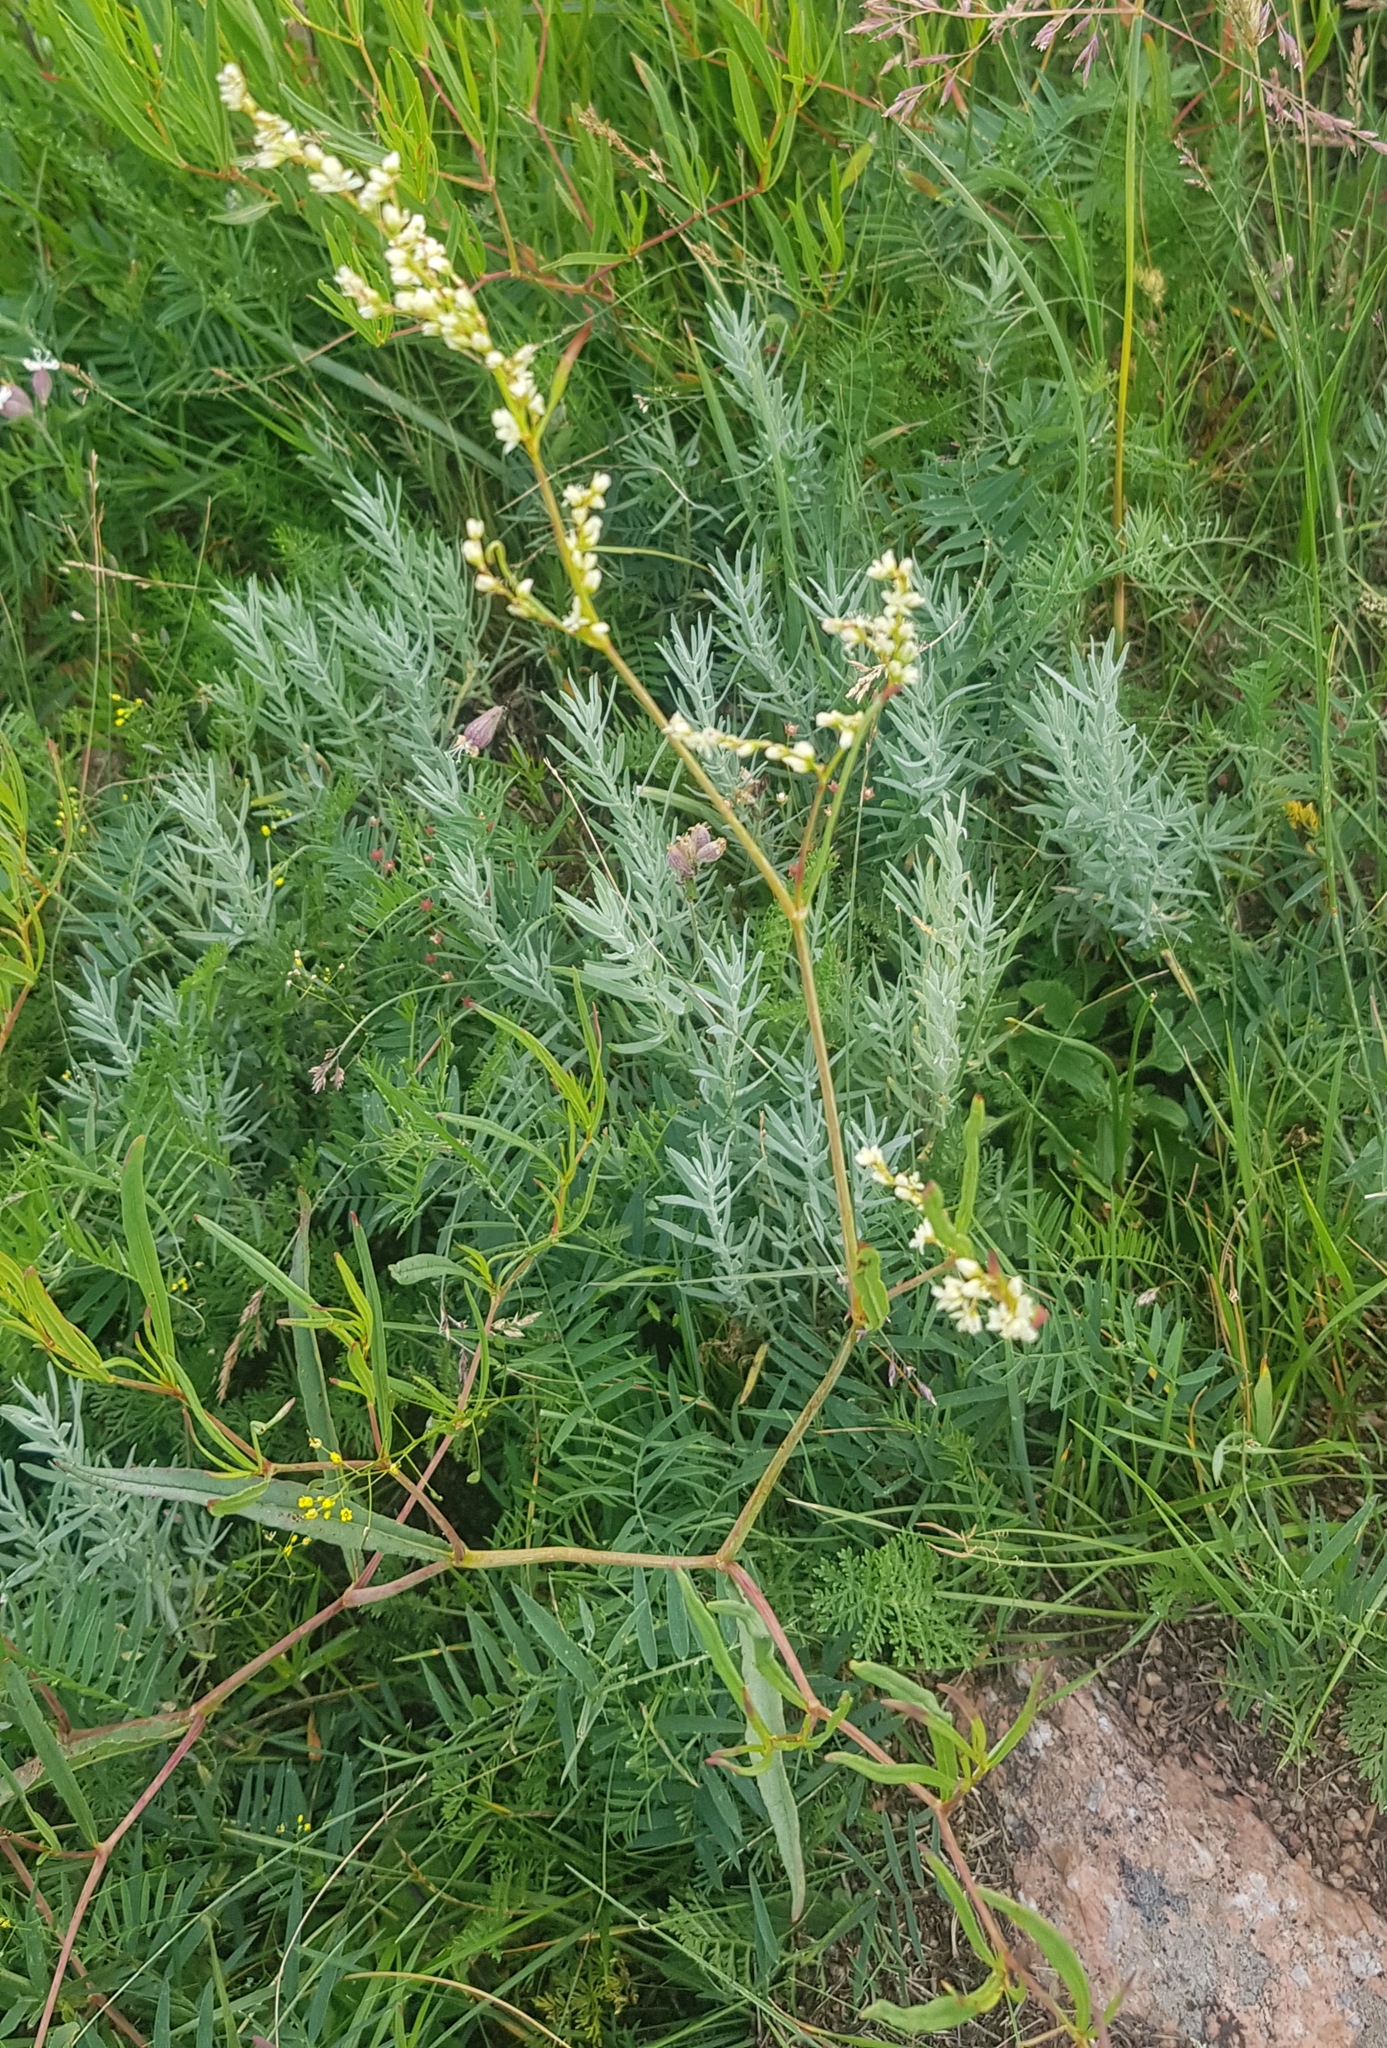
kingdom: Plantae
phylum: Tracheophyta
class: Magnoliopsida
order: Caryophyllales
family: Polygonaceae
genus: Persicaria
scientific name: Persicaria angustifolia
